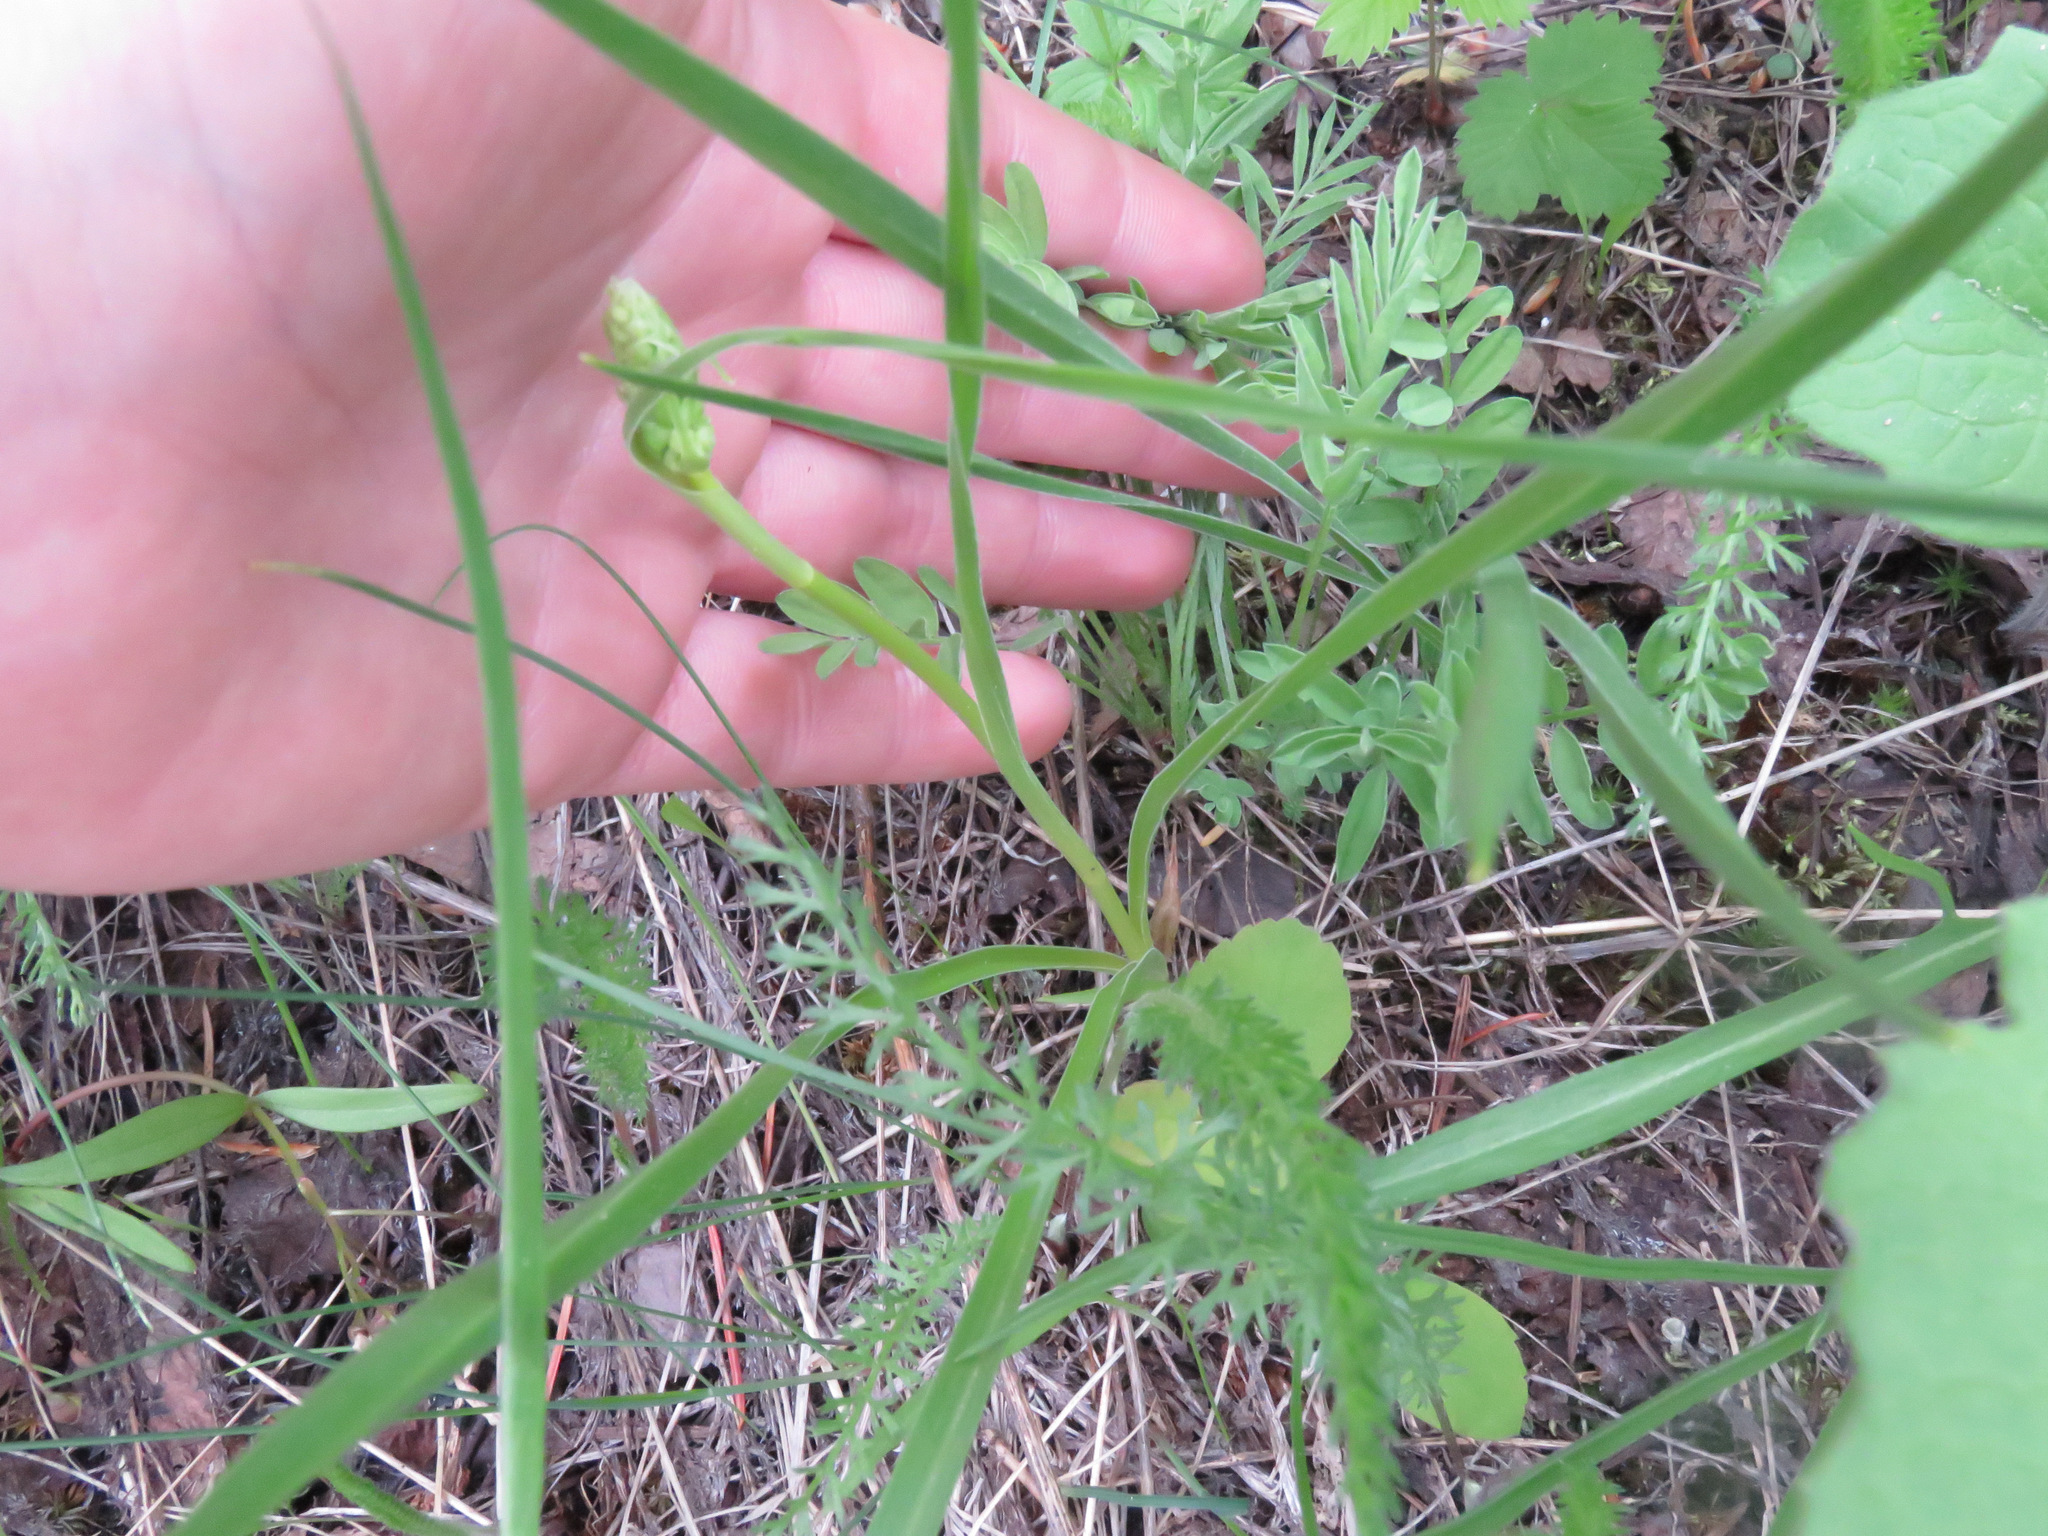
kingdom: Plantae
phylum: Tracheophyta
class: Liliopsida
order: Liliales
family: Melanthiaceae
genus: Toxicoscordion
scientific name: Toxicoscordion venenosum
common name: Meadow death camas
